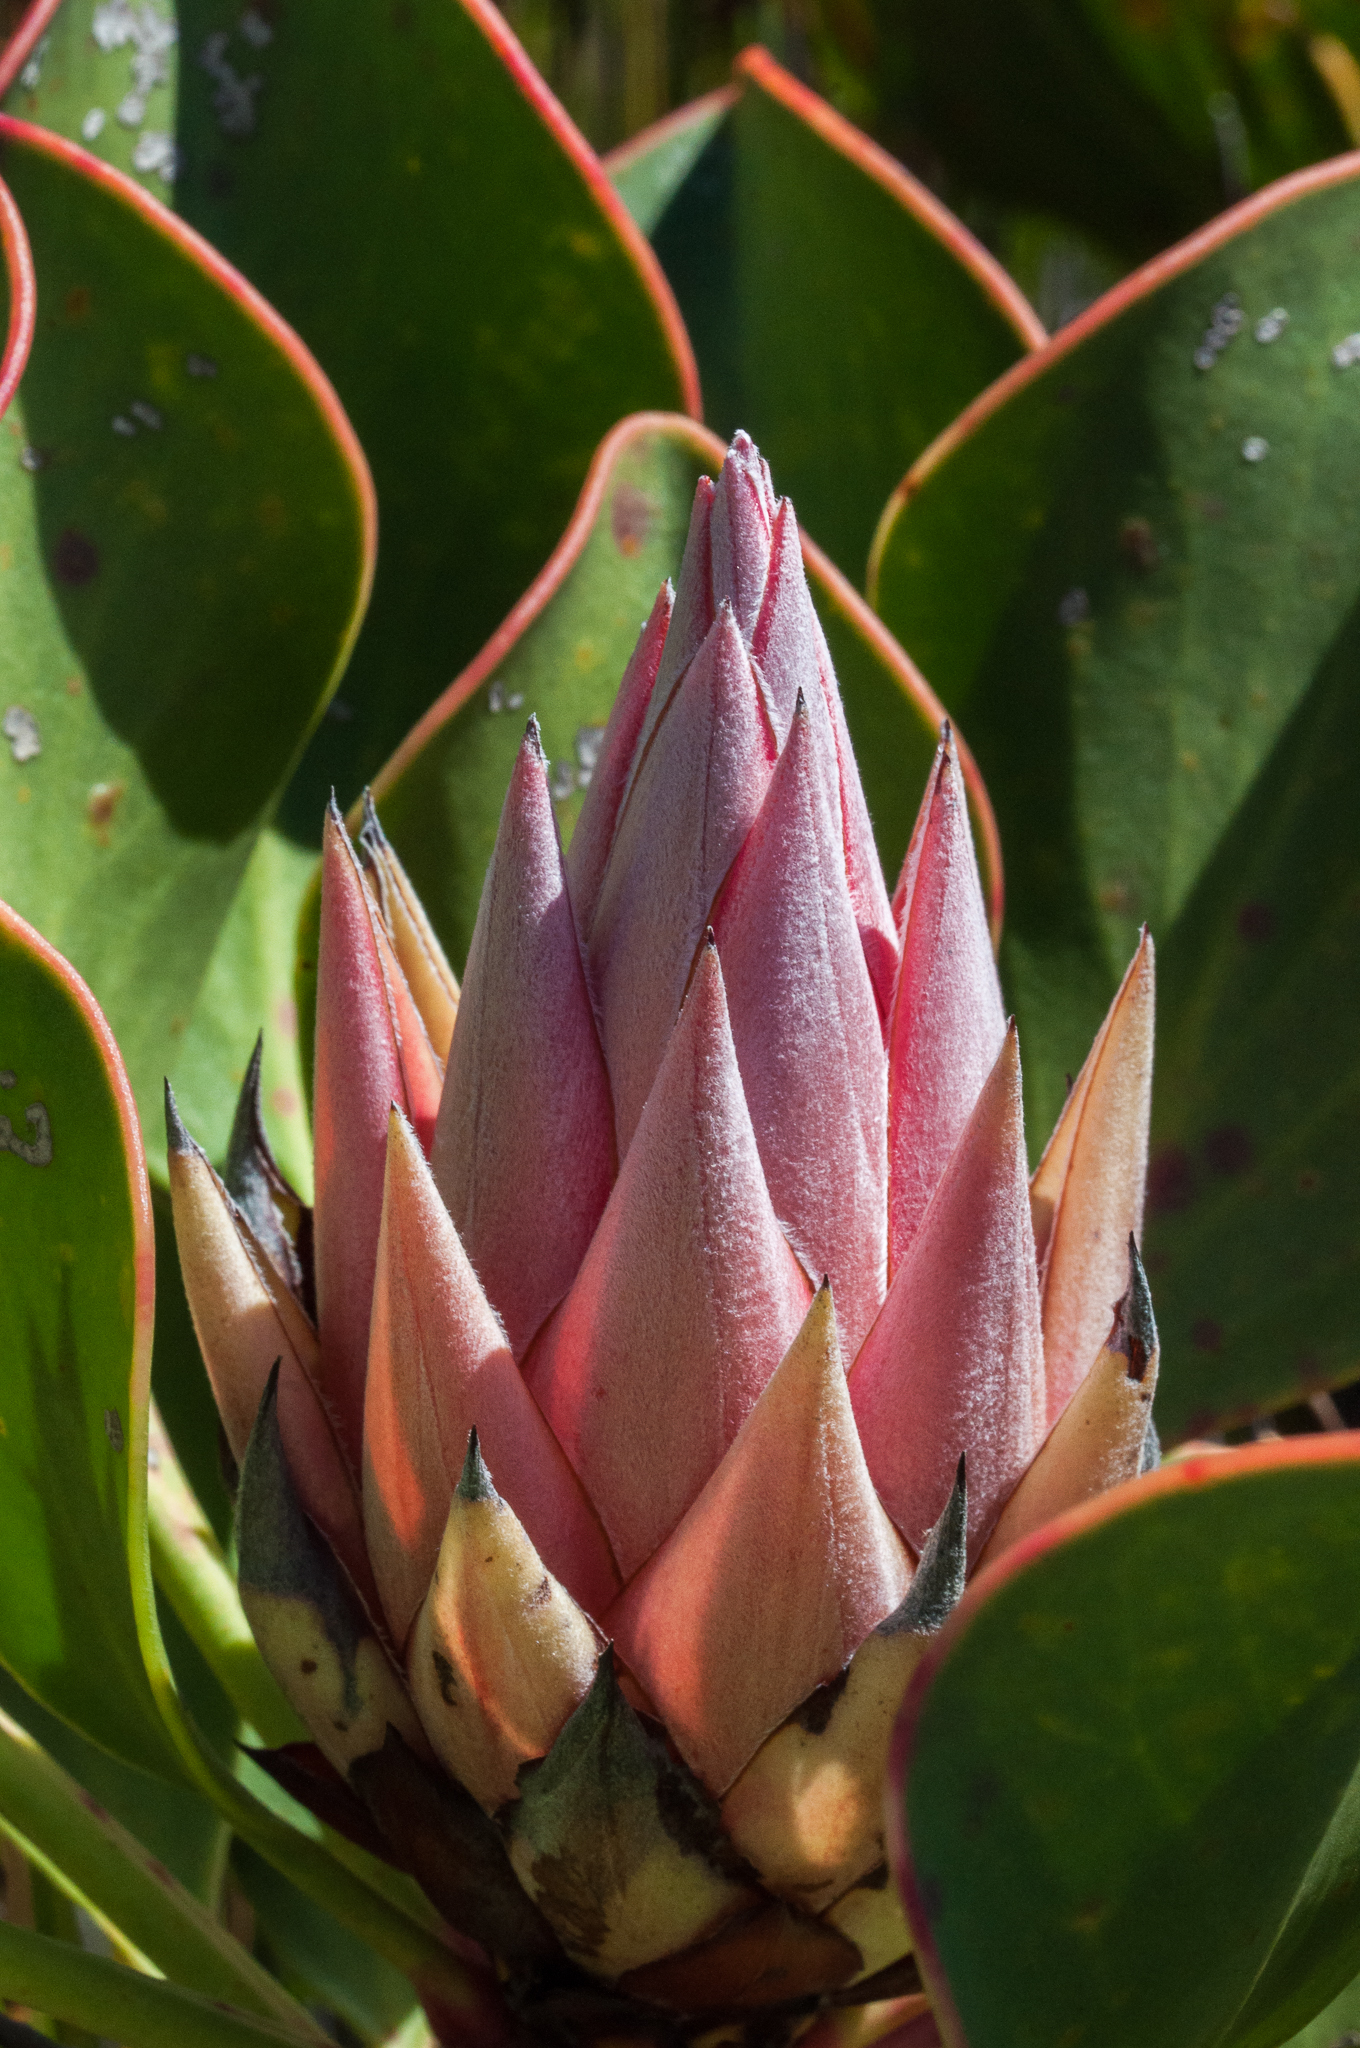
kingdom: Plantae
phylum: Tracheophyta
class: Magnoliopsida
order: Proteales
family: Proteaceae
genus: Protea
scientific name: Protea cynaroides
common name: King protea
